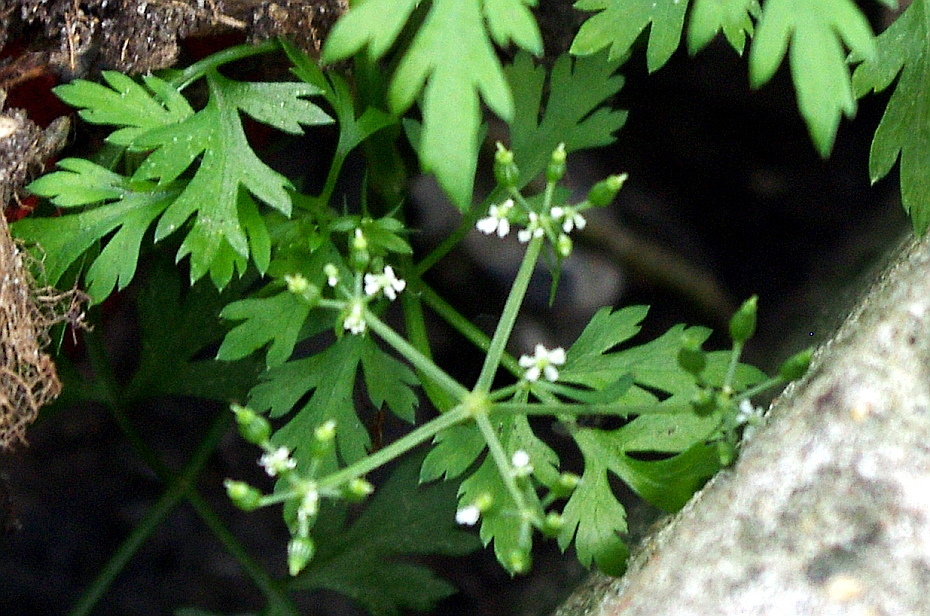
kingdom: Plantae
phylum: Tracheophyta
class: Magnoliopsida
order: Apiales
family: Apiaceae
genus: Aethusa
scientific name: Aethusa cynapium
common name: Fool's parsley
